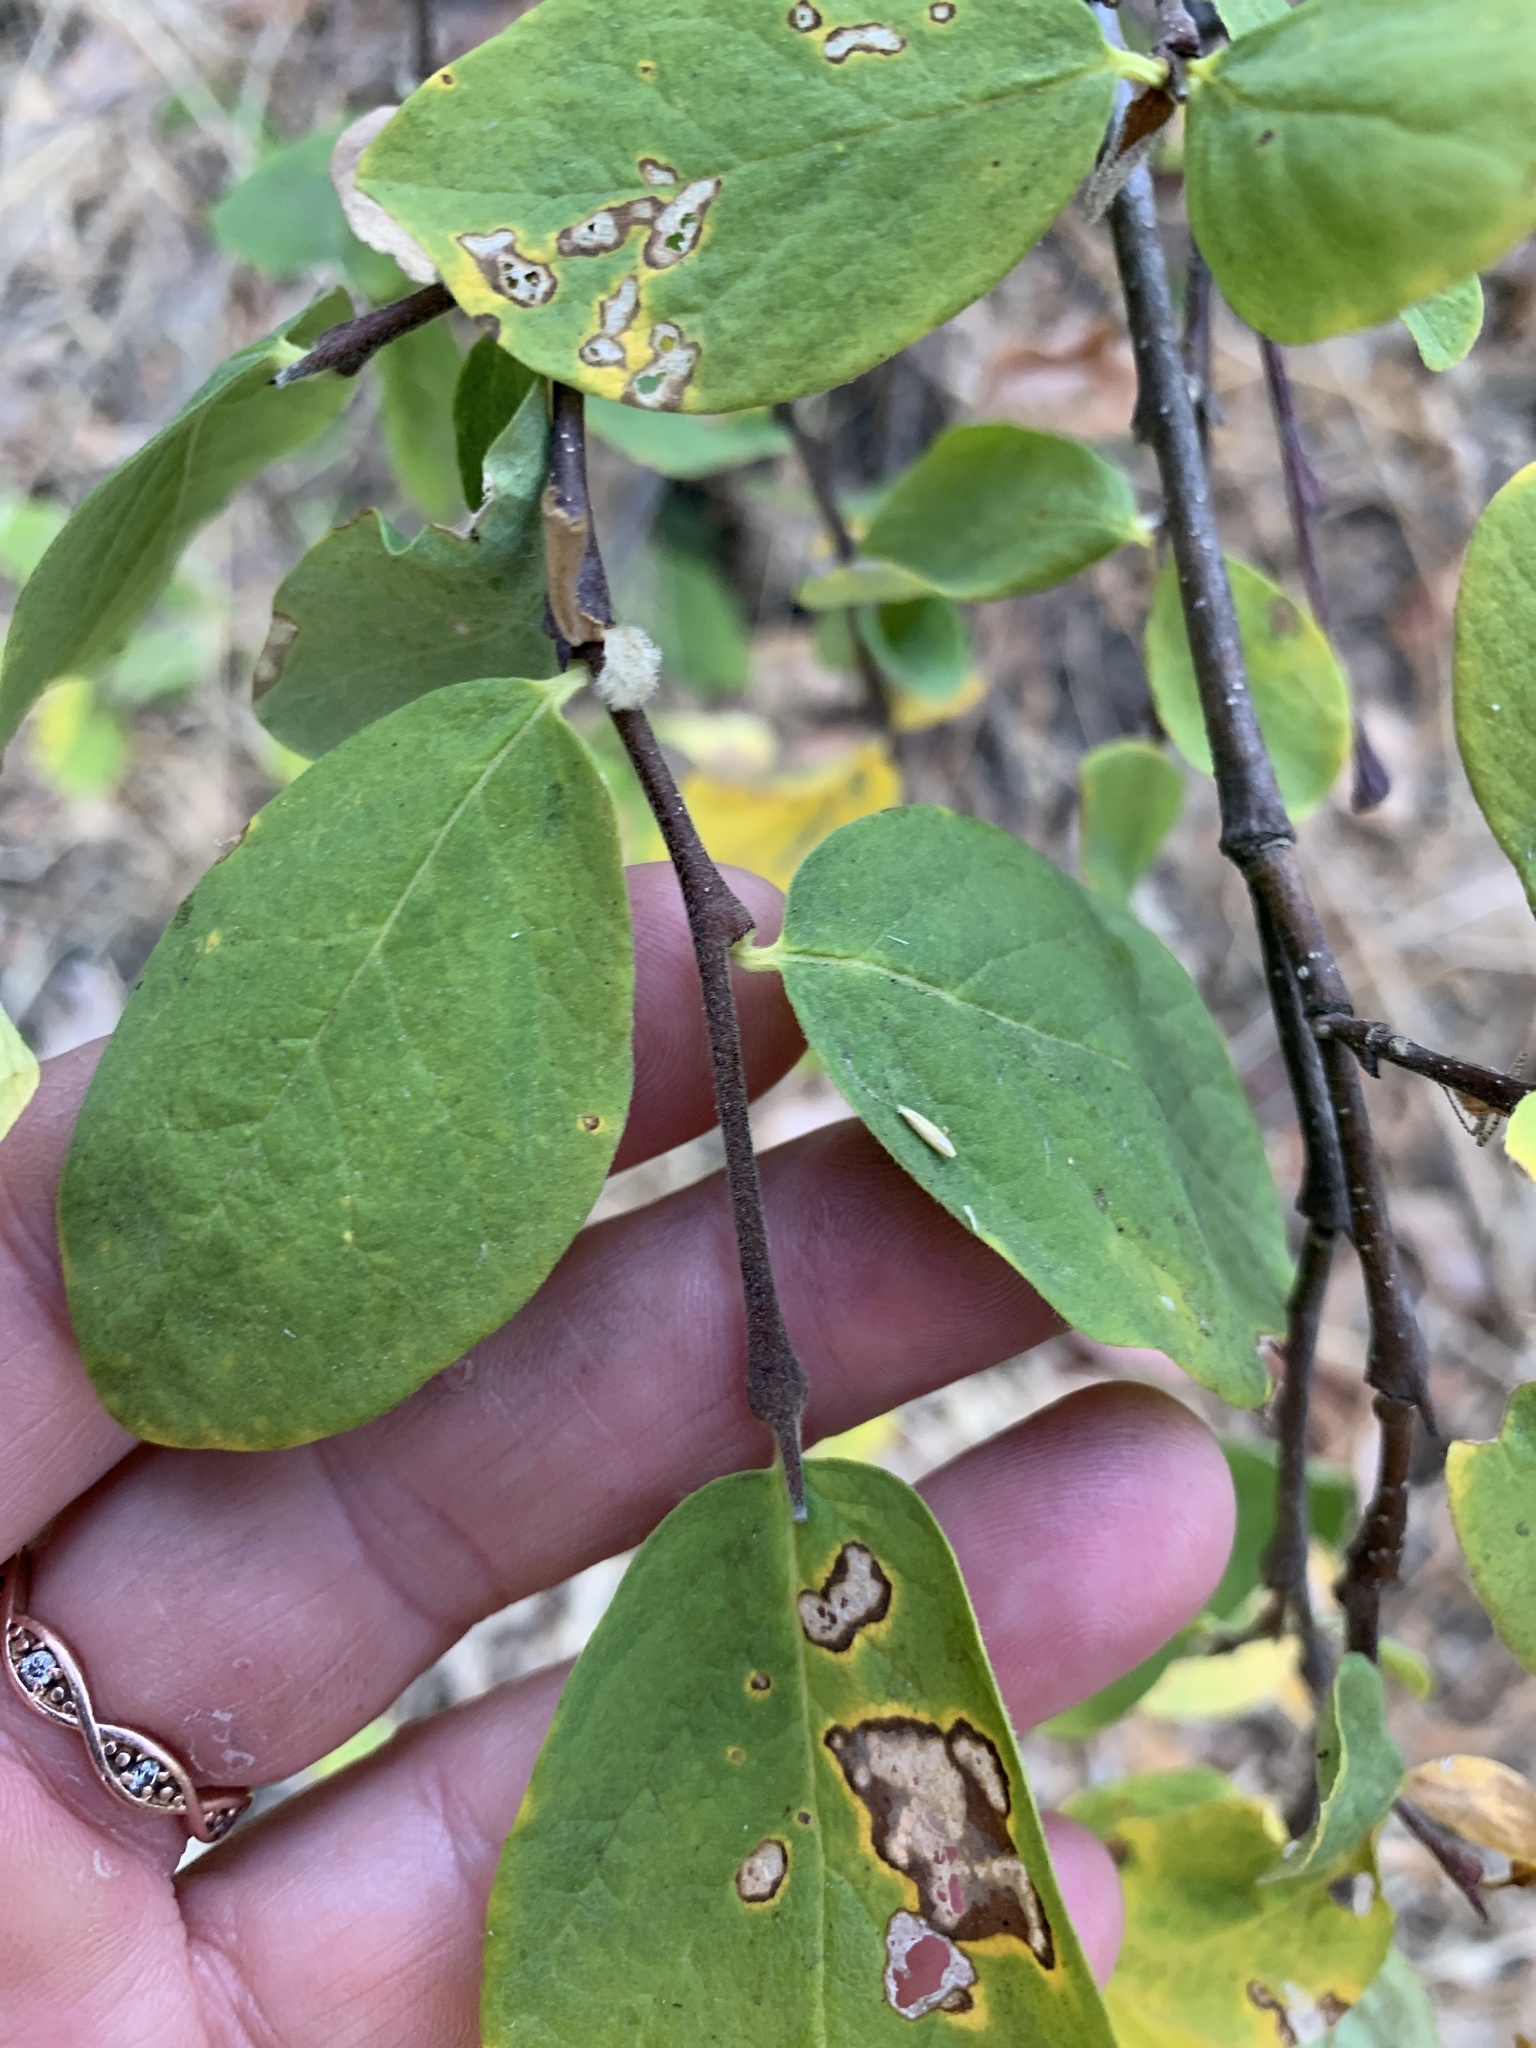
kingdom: Plantae
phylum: Tracheophyta
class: Magnoliopsida
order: Malvales
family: Thymelaeaceae
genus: Dirca
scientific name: Dirca occidentalis
